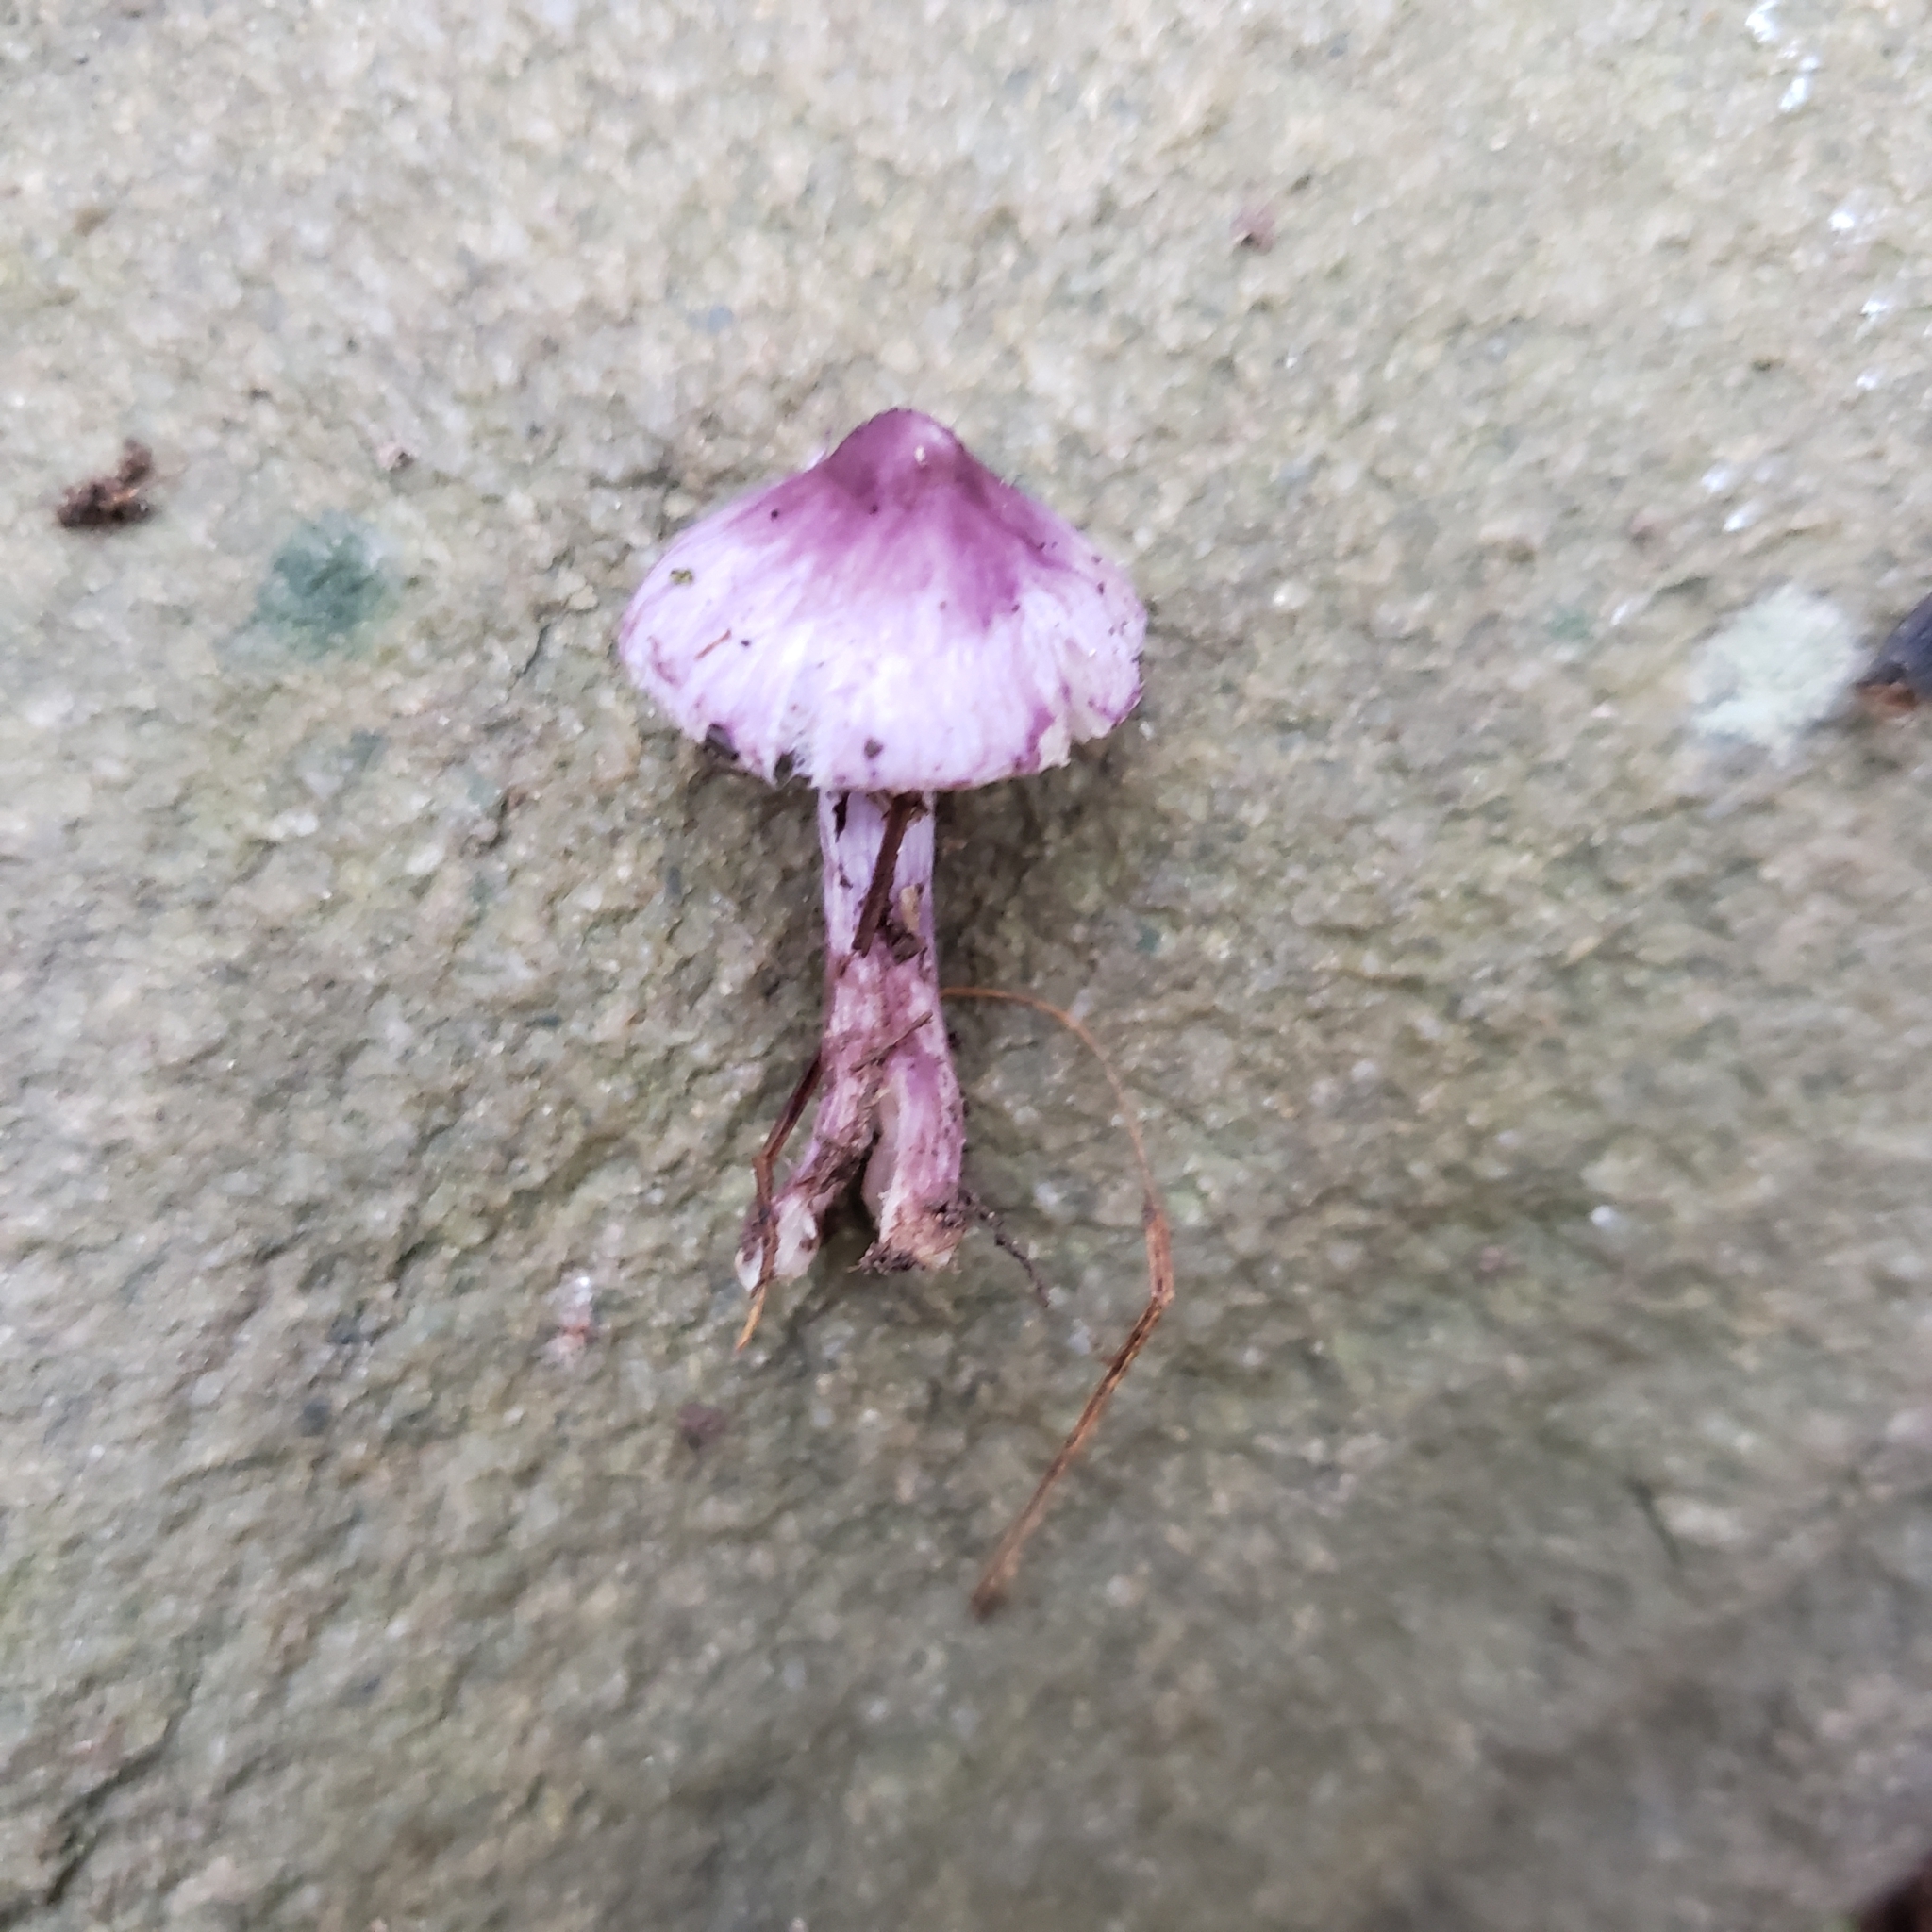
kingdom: Fungi
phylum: Basidiomycota
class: Agaricomycetes
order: Agaricales
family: Inocybaceae
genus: Inocybe
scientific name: Inocybe geophylla
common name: White fibrecap
